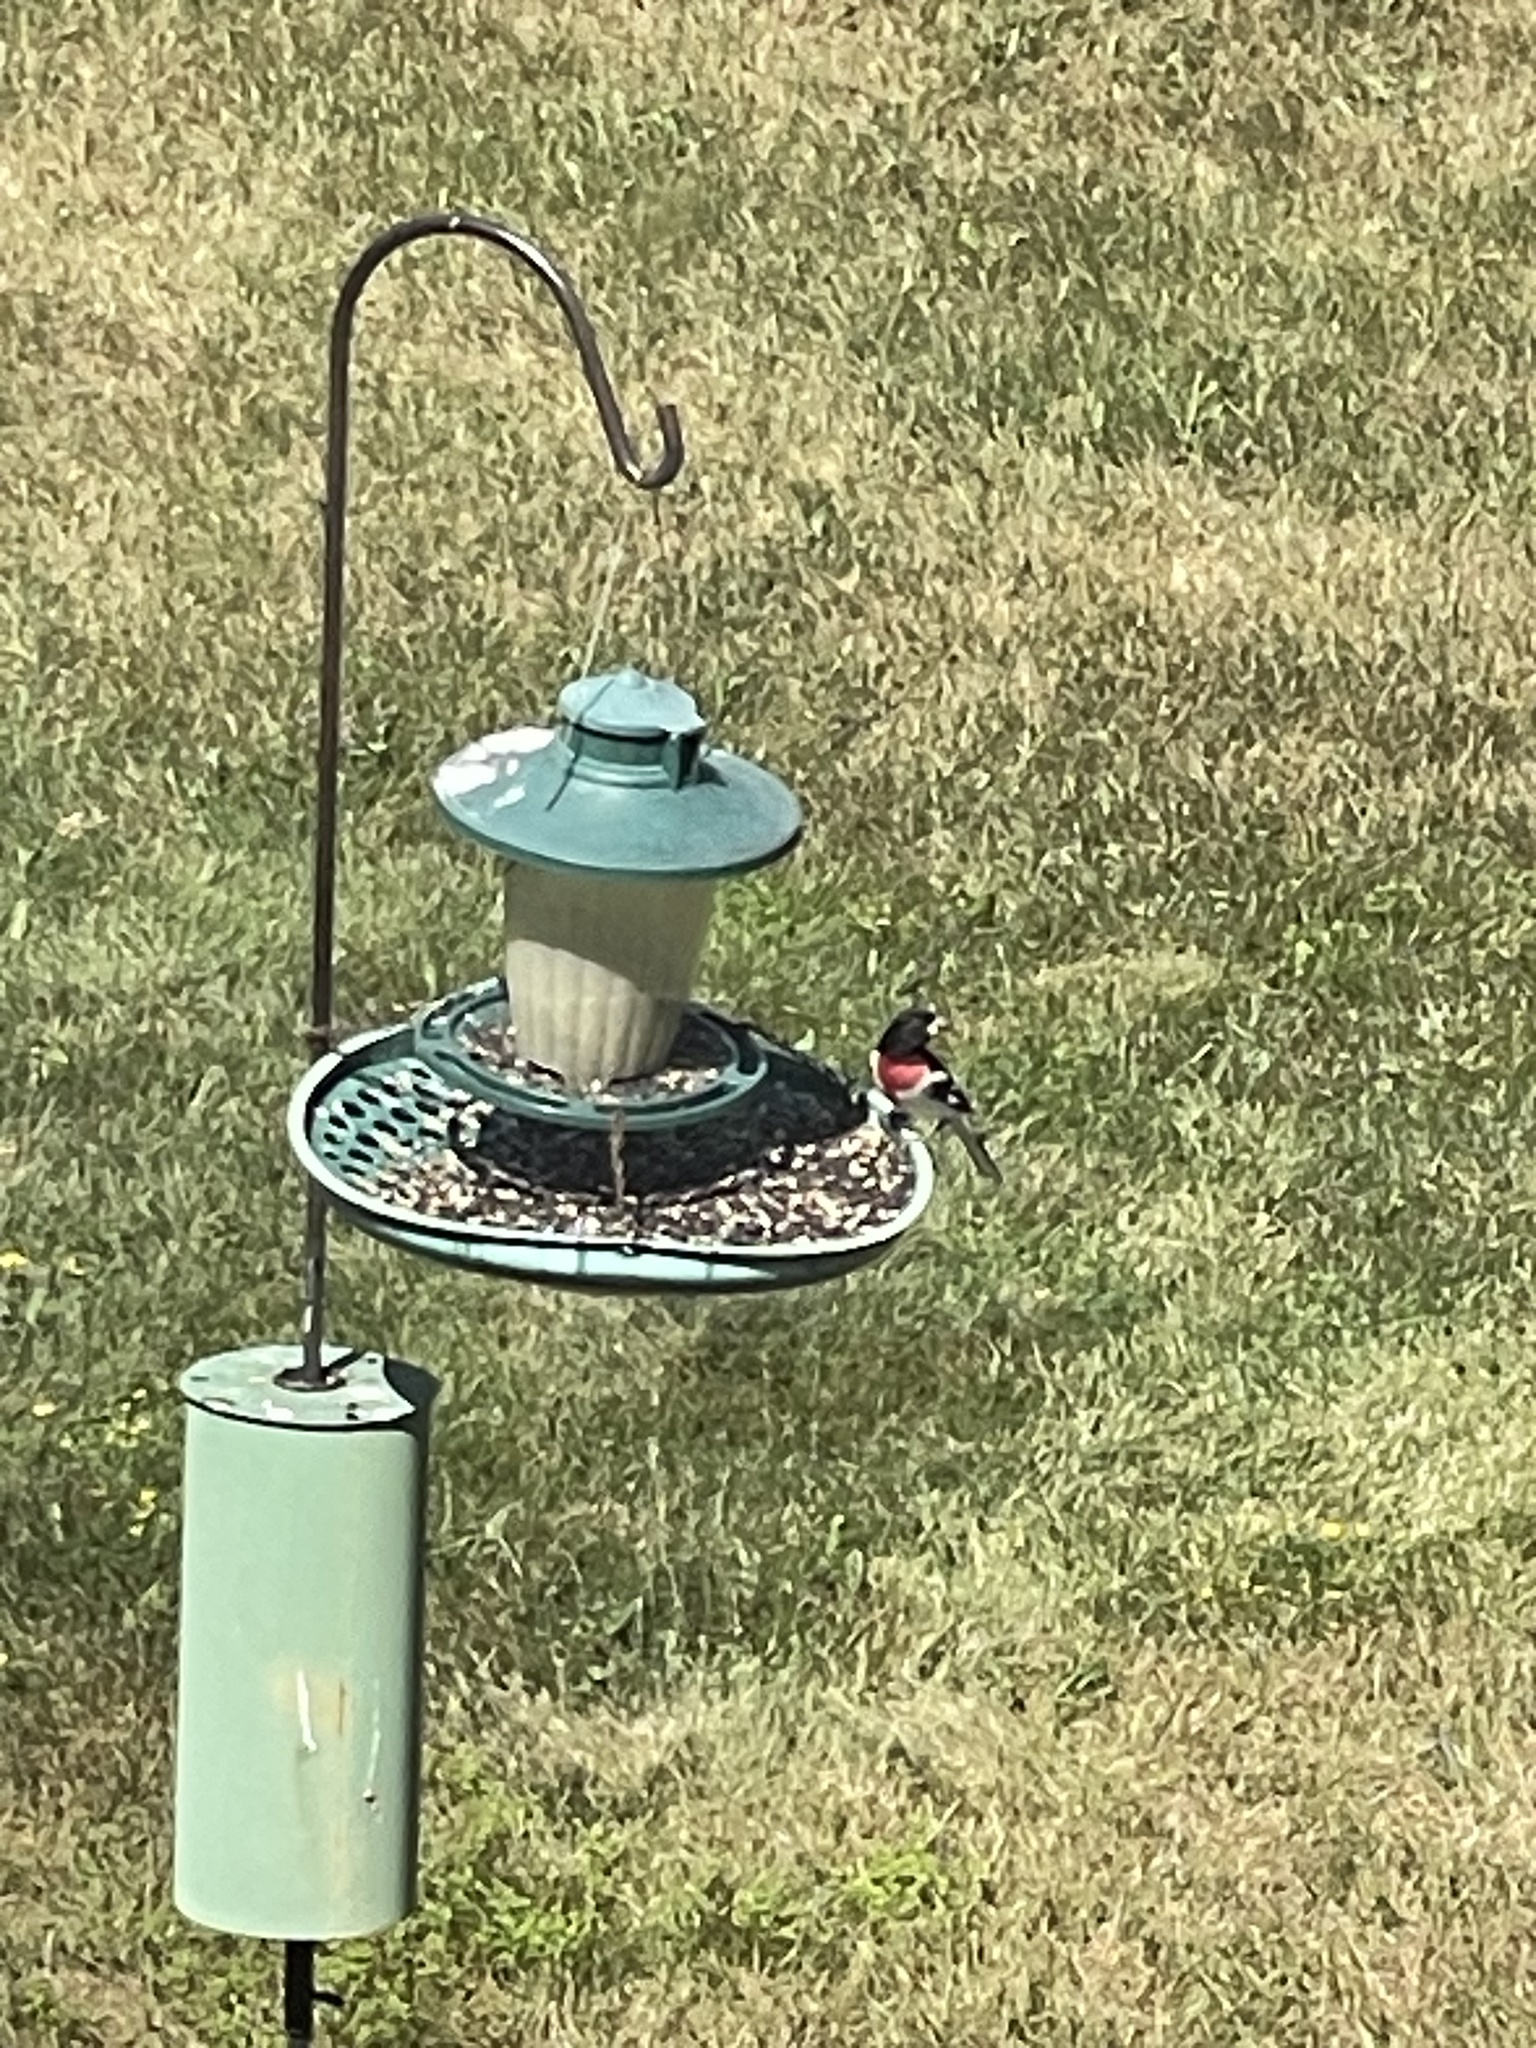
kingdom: Animalia
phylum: Chordata
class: Aves
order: Passeriformes
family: Cardinalidae
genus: Pheucticus
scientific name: Pheucticus ludovicianus
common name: Rose-breasted grosbeak
